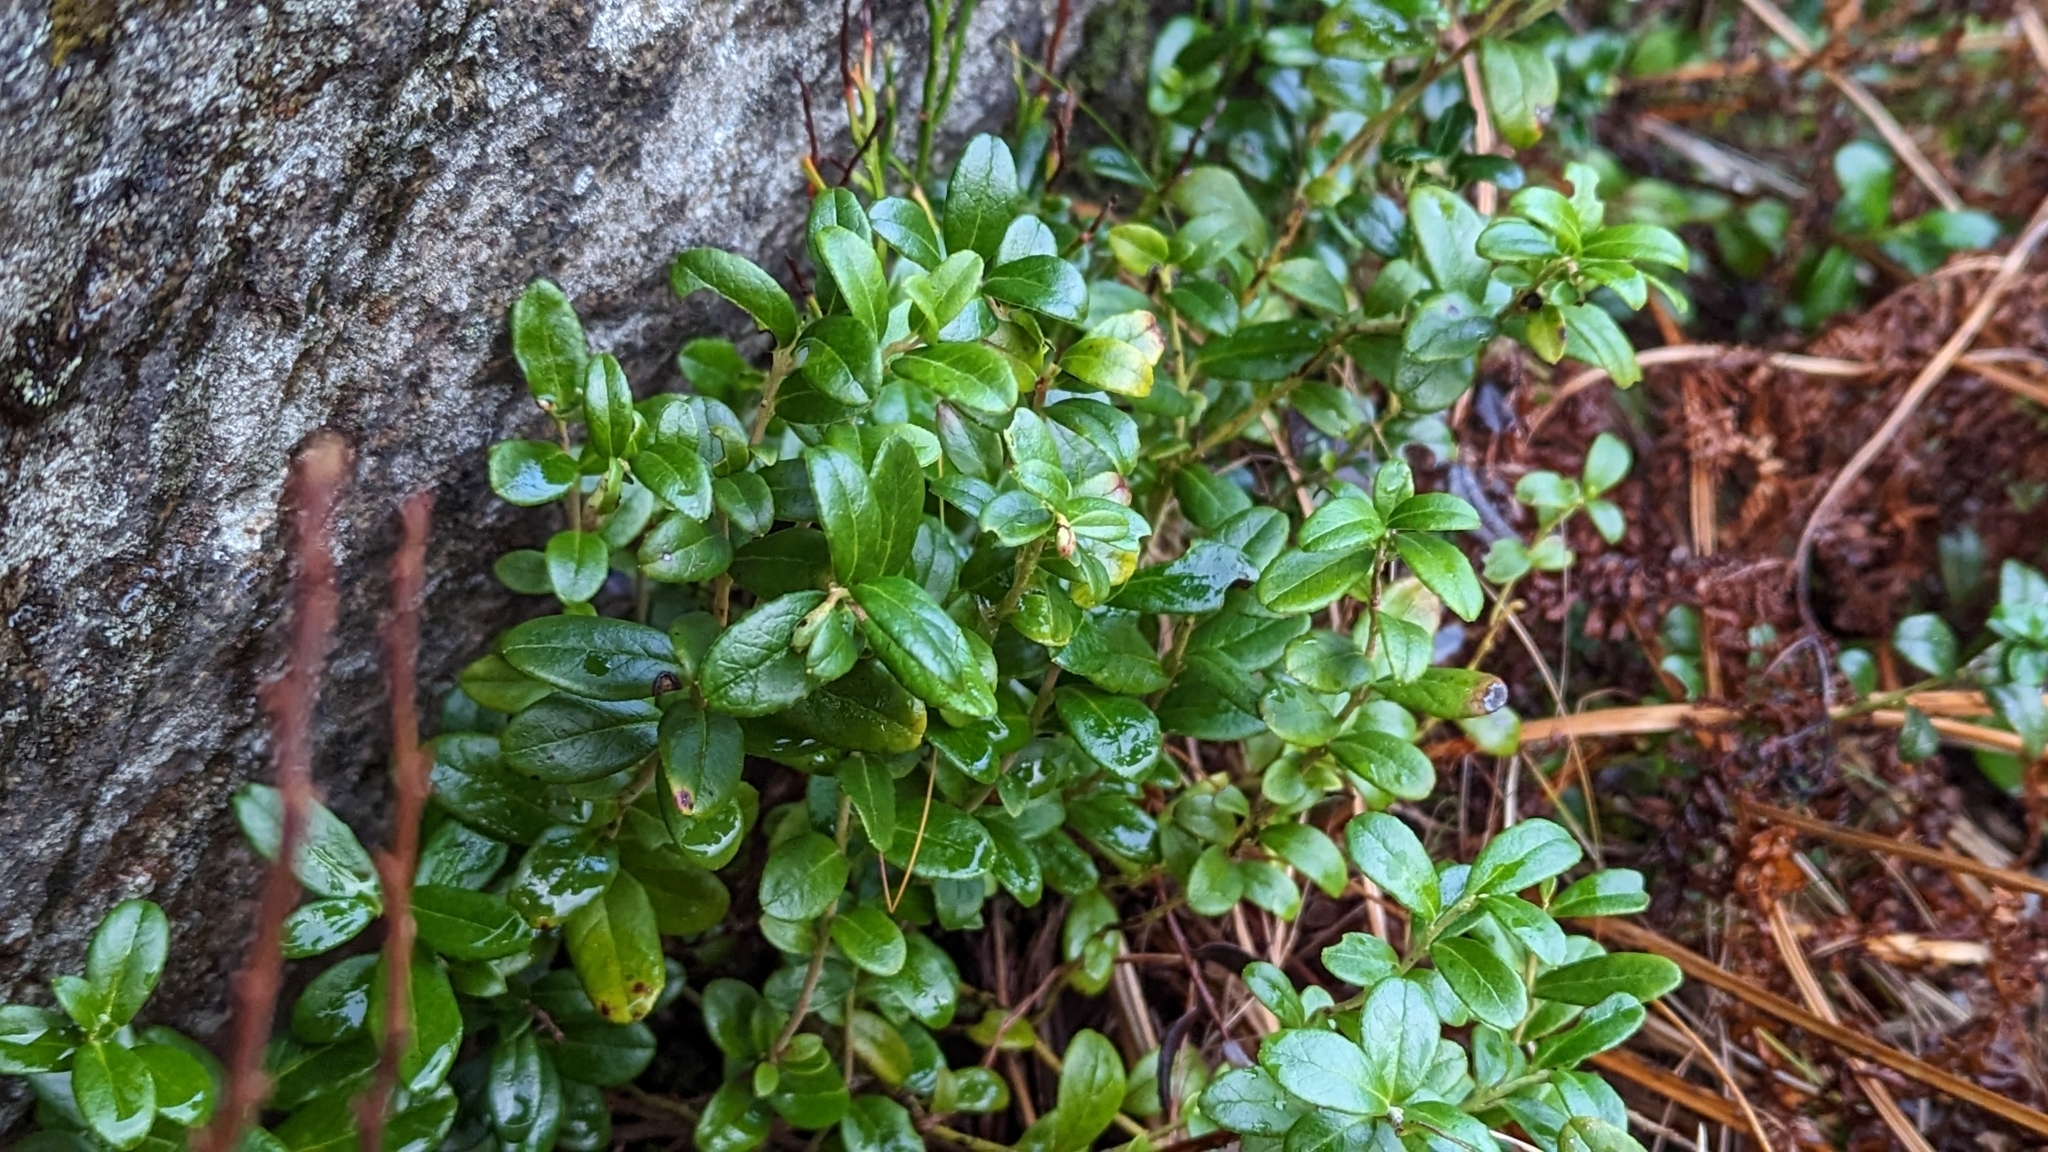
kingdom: Plantae
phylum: Tracheophyta
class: Magnoliopsida
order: Ericales
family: Ericaceae
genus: Vaccinium
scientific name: Vaccinium vitis-idaea
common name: Cowberry
